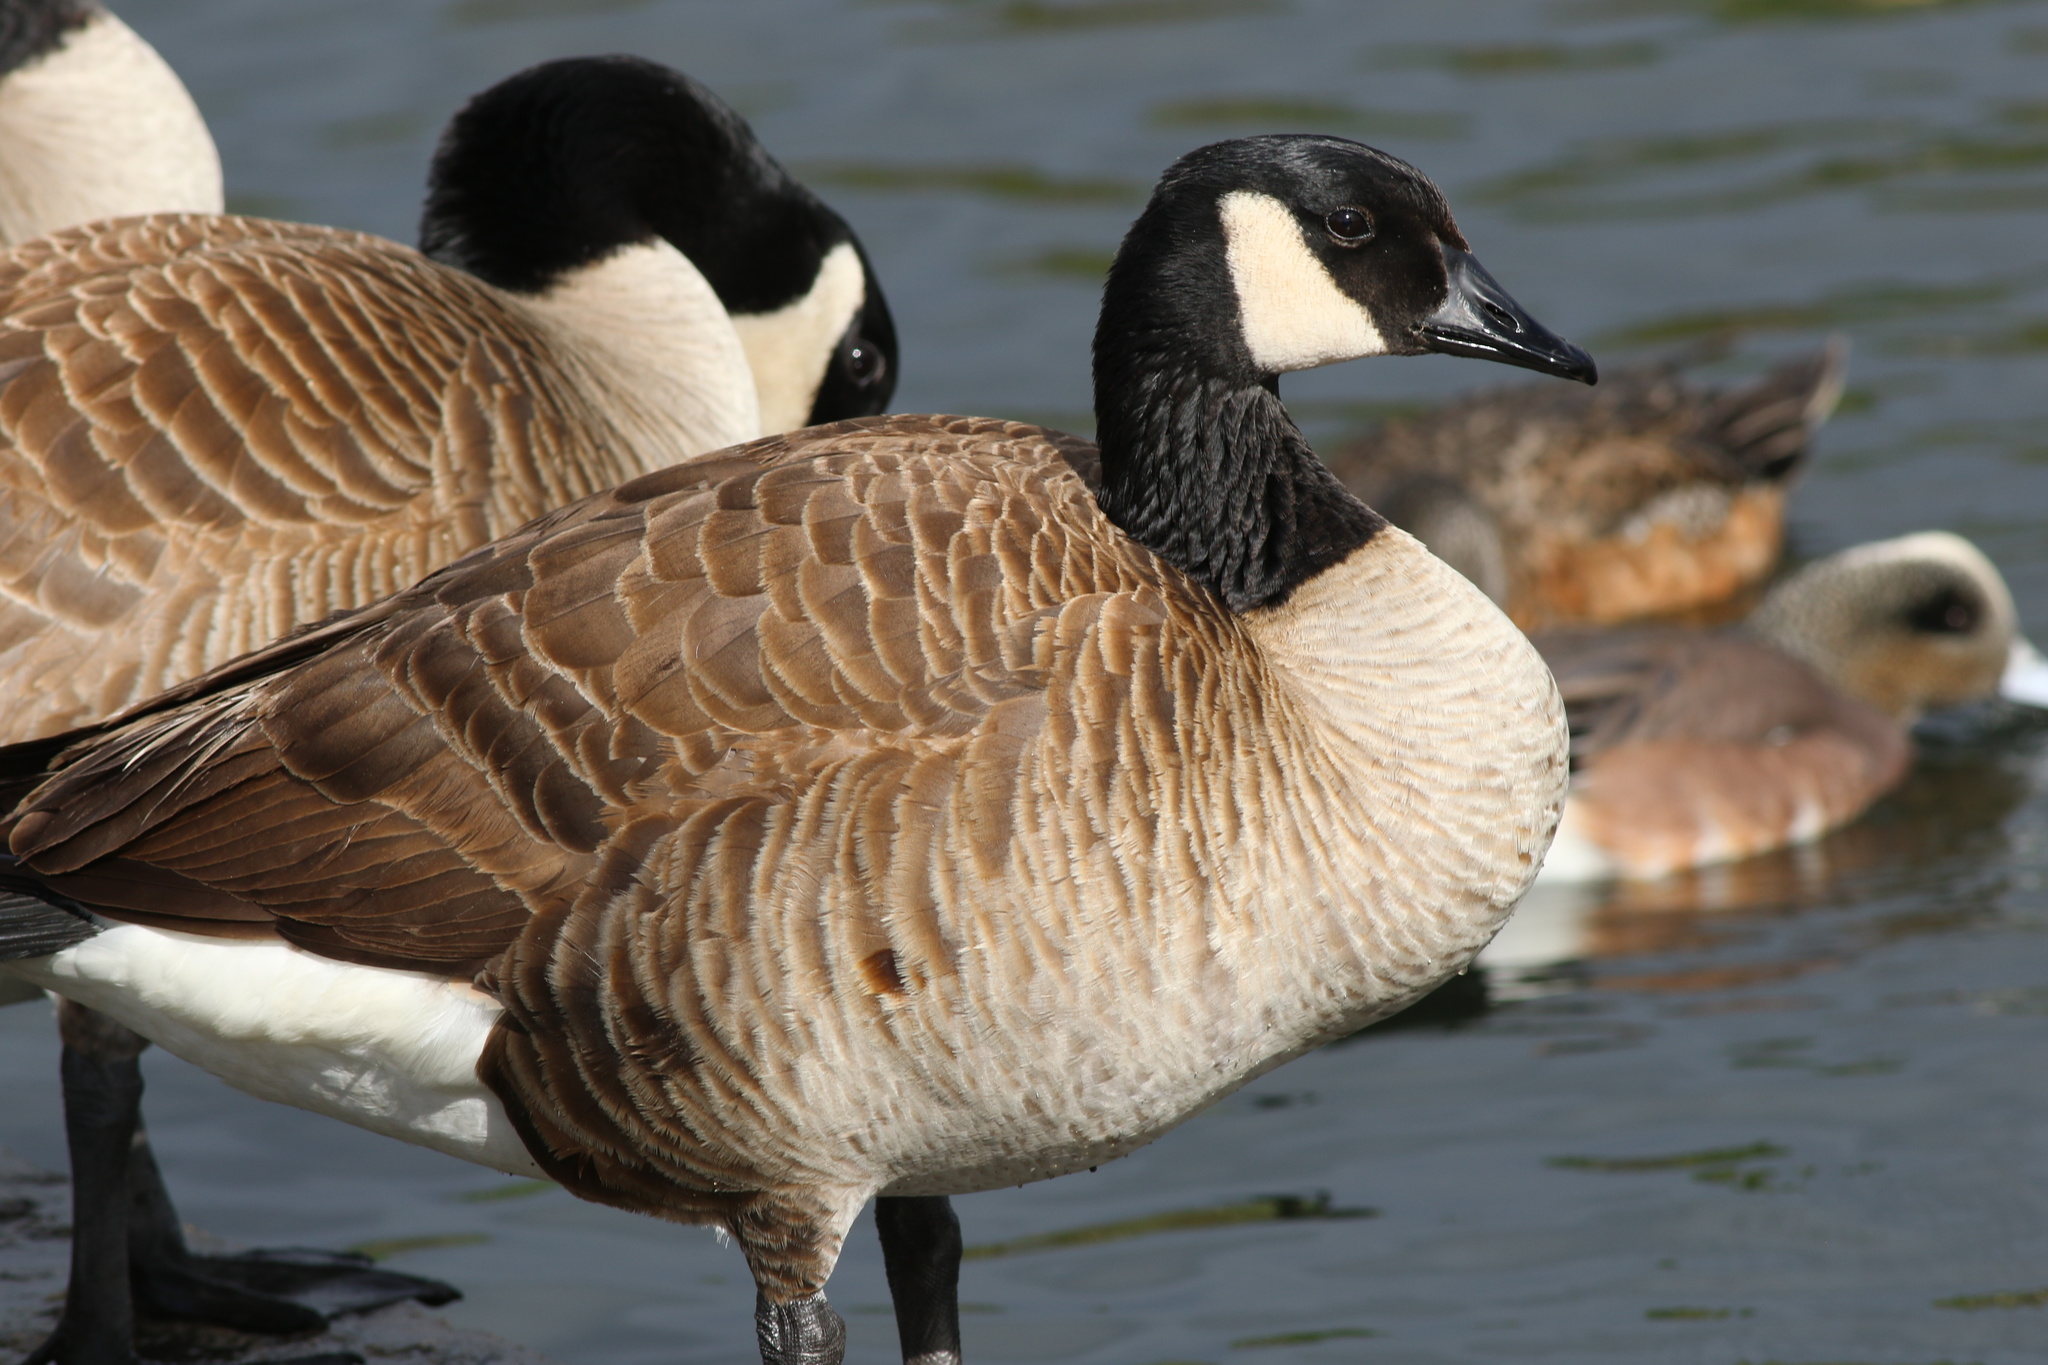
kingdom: Animalia
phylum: Chordata
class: Aves
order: Anseriformes
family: Anatidae
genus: Branta
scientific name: Branta canadensis
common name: Canada goose
